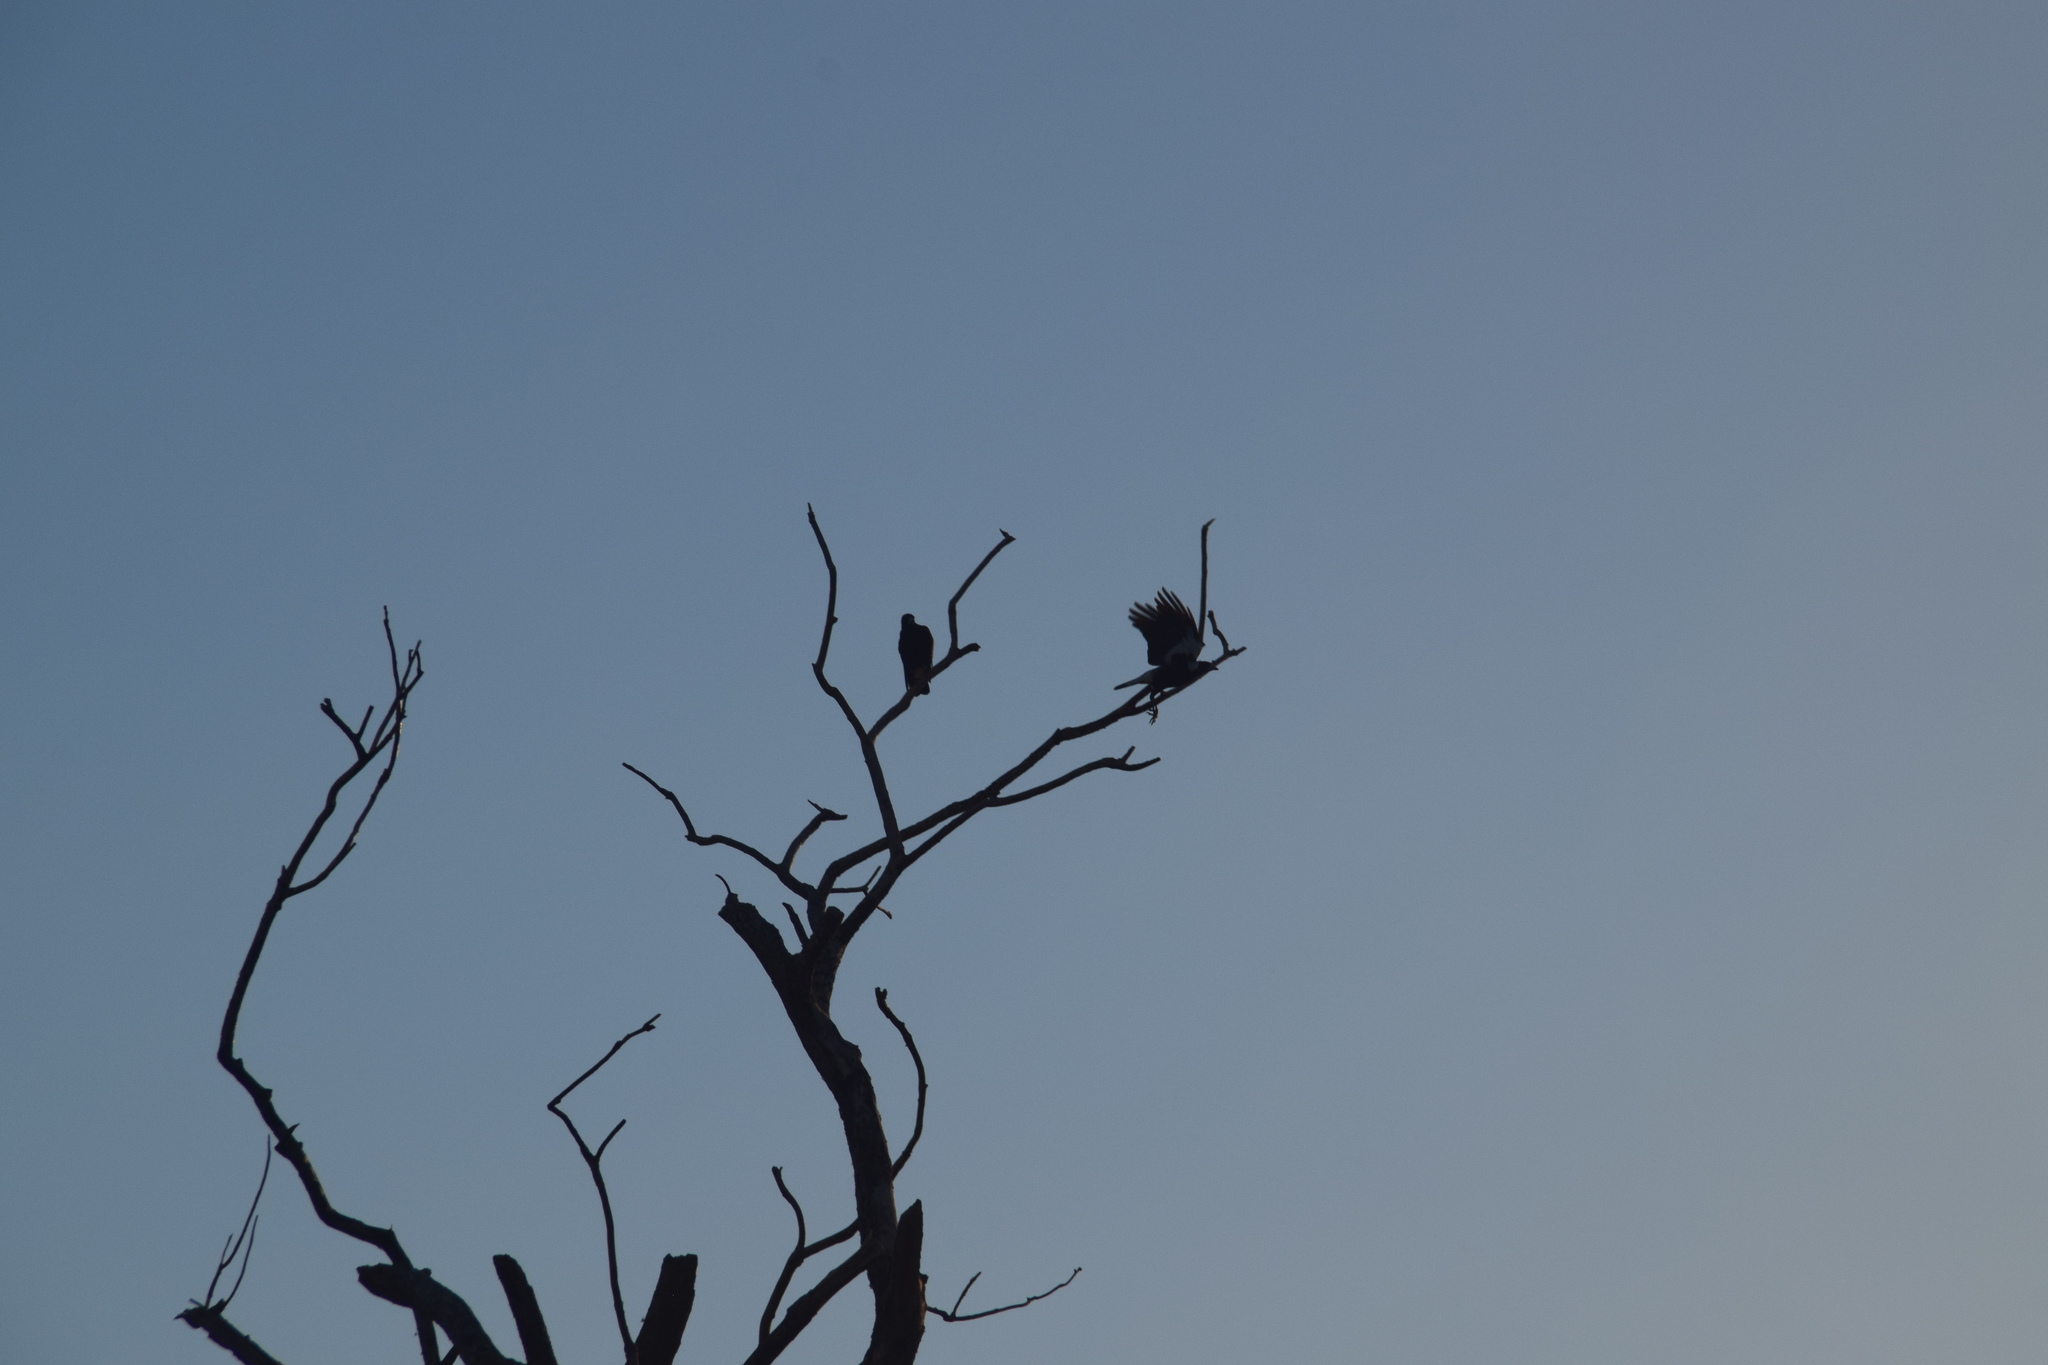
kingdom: Animalia
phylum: Chordata
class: Aves
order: Passeriformes
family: Cracticidae
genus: Gymnorhina
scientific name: Gymnorhina tibicen
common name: Australian magpie
